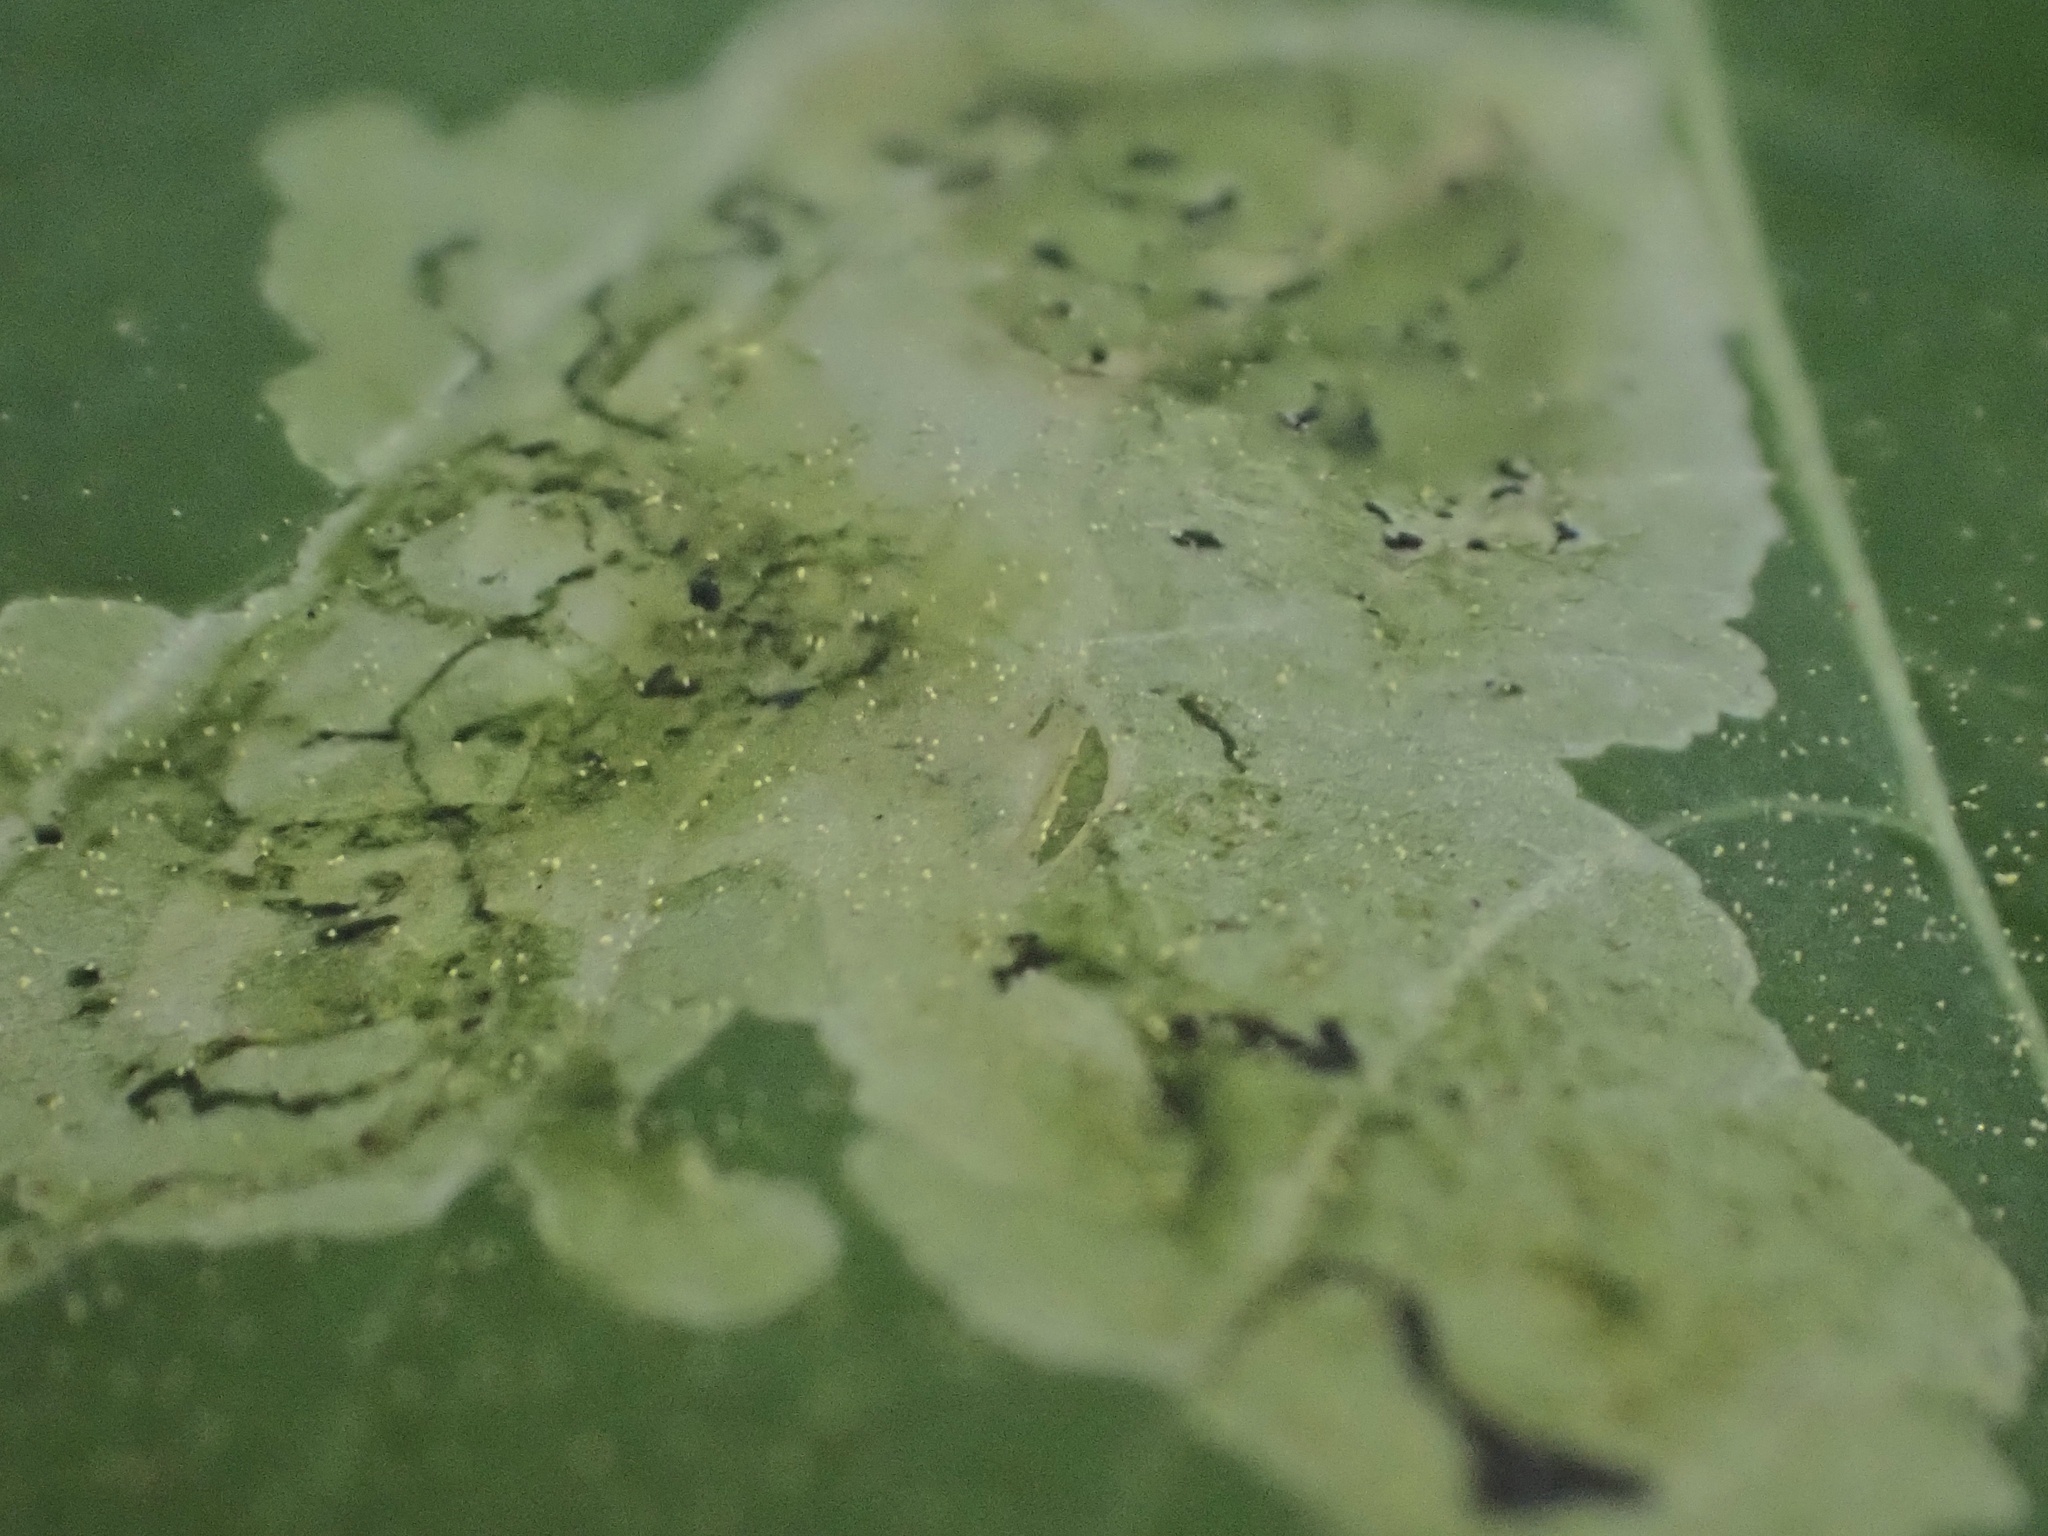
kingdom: Animalia
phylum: Arthropoda
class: Insecta
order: Diptera
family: Agromyzidae
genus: Phytoliriomyza
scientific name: Phytoliriomyza melampyga
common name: Jewelweed leaf-miner fly
